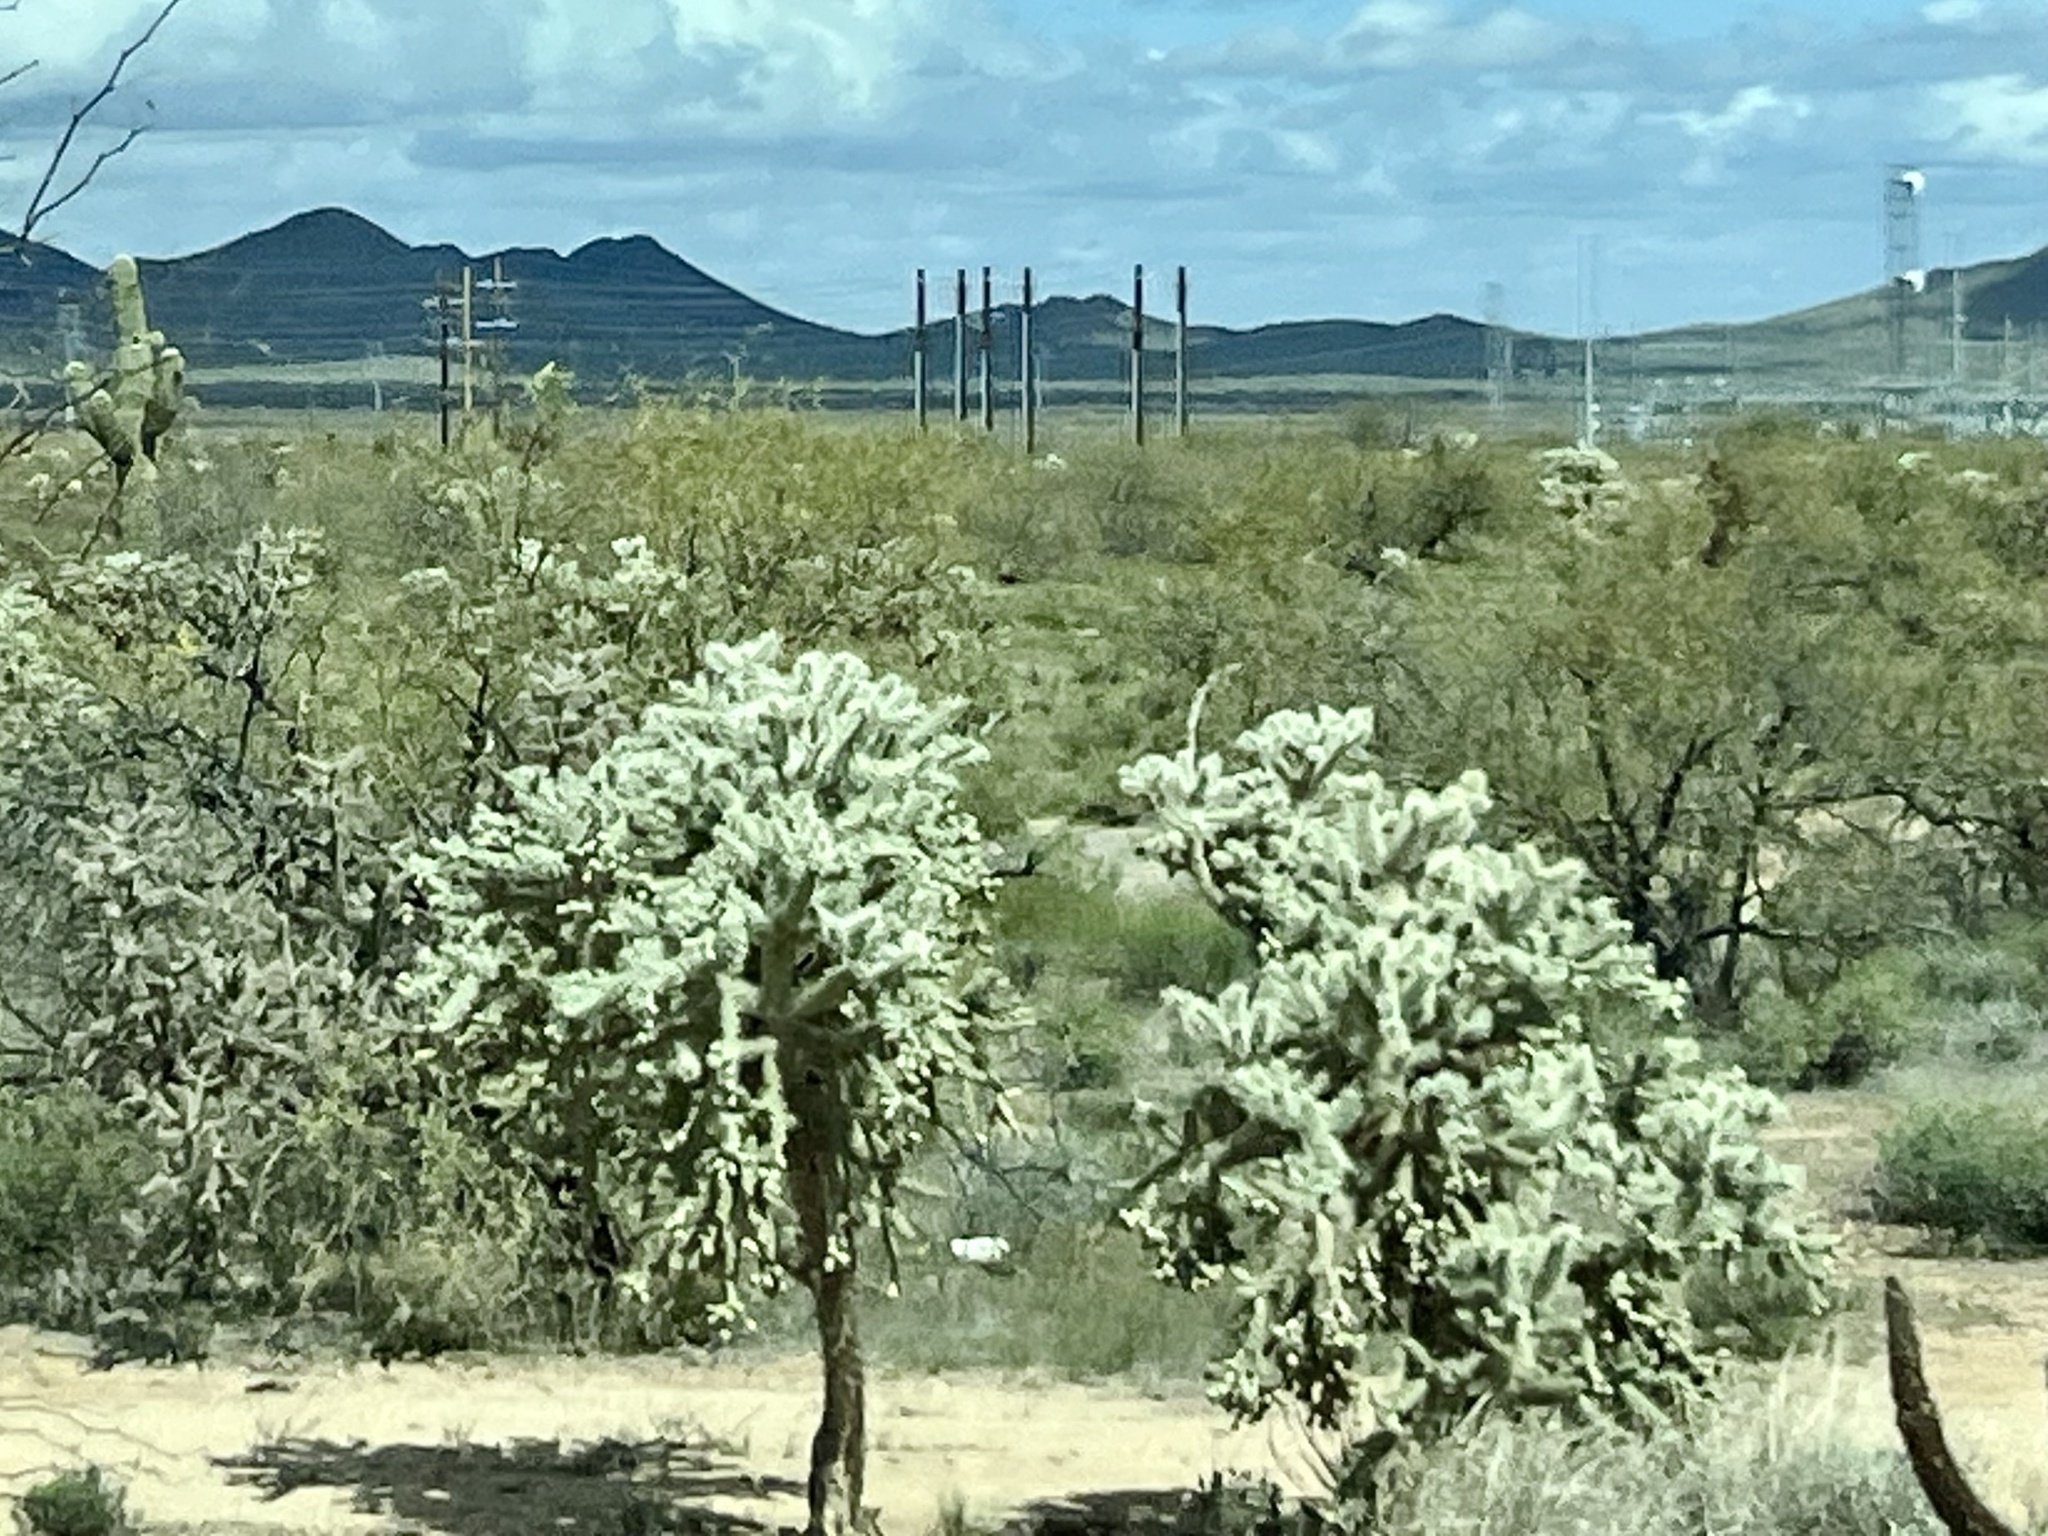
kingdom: Plantae
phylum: Tracheophyta
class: Magnoliopsida
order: Caryophyllales
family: Cactaceae
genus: Cylindropuntia
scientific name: Cylindropuntia fulgida
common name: Jumping cholla
